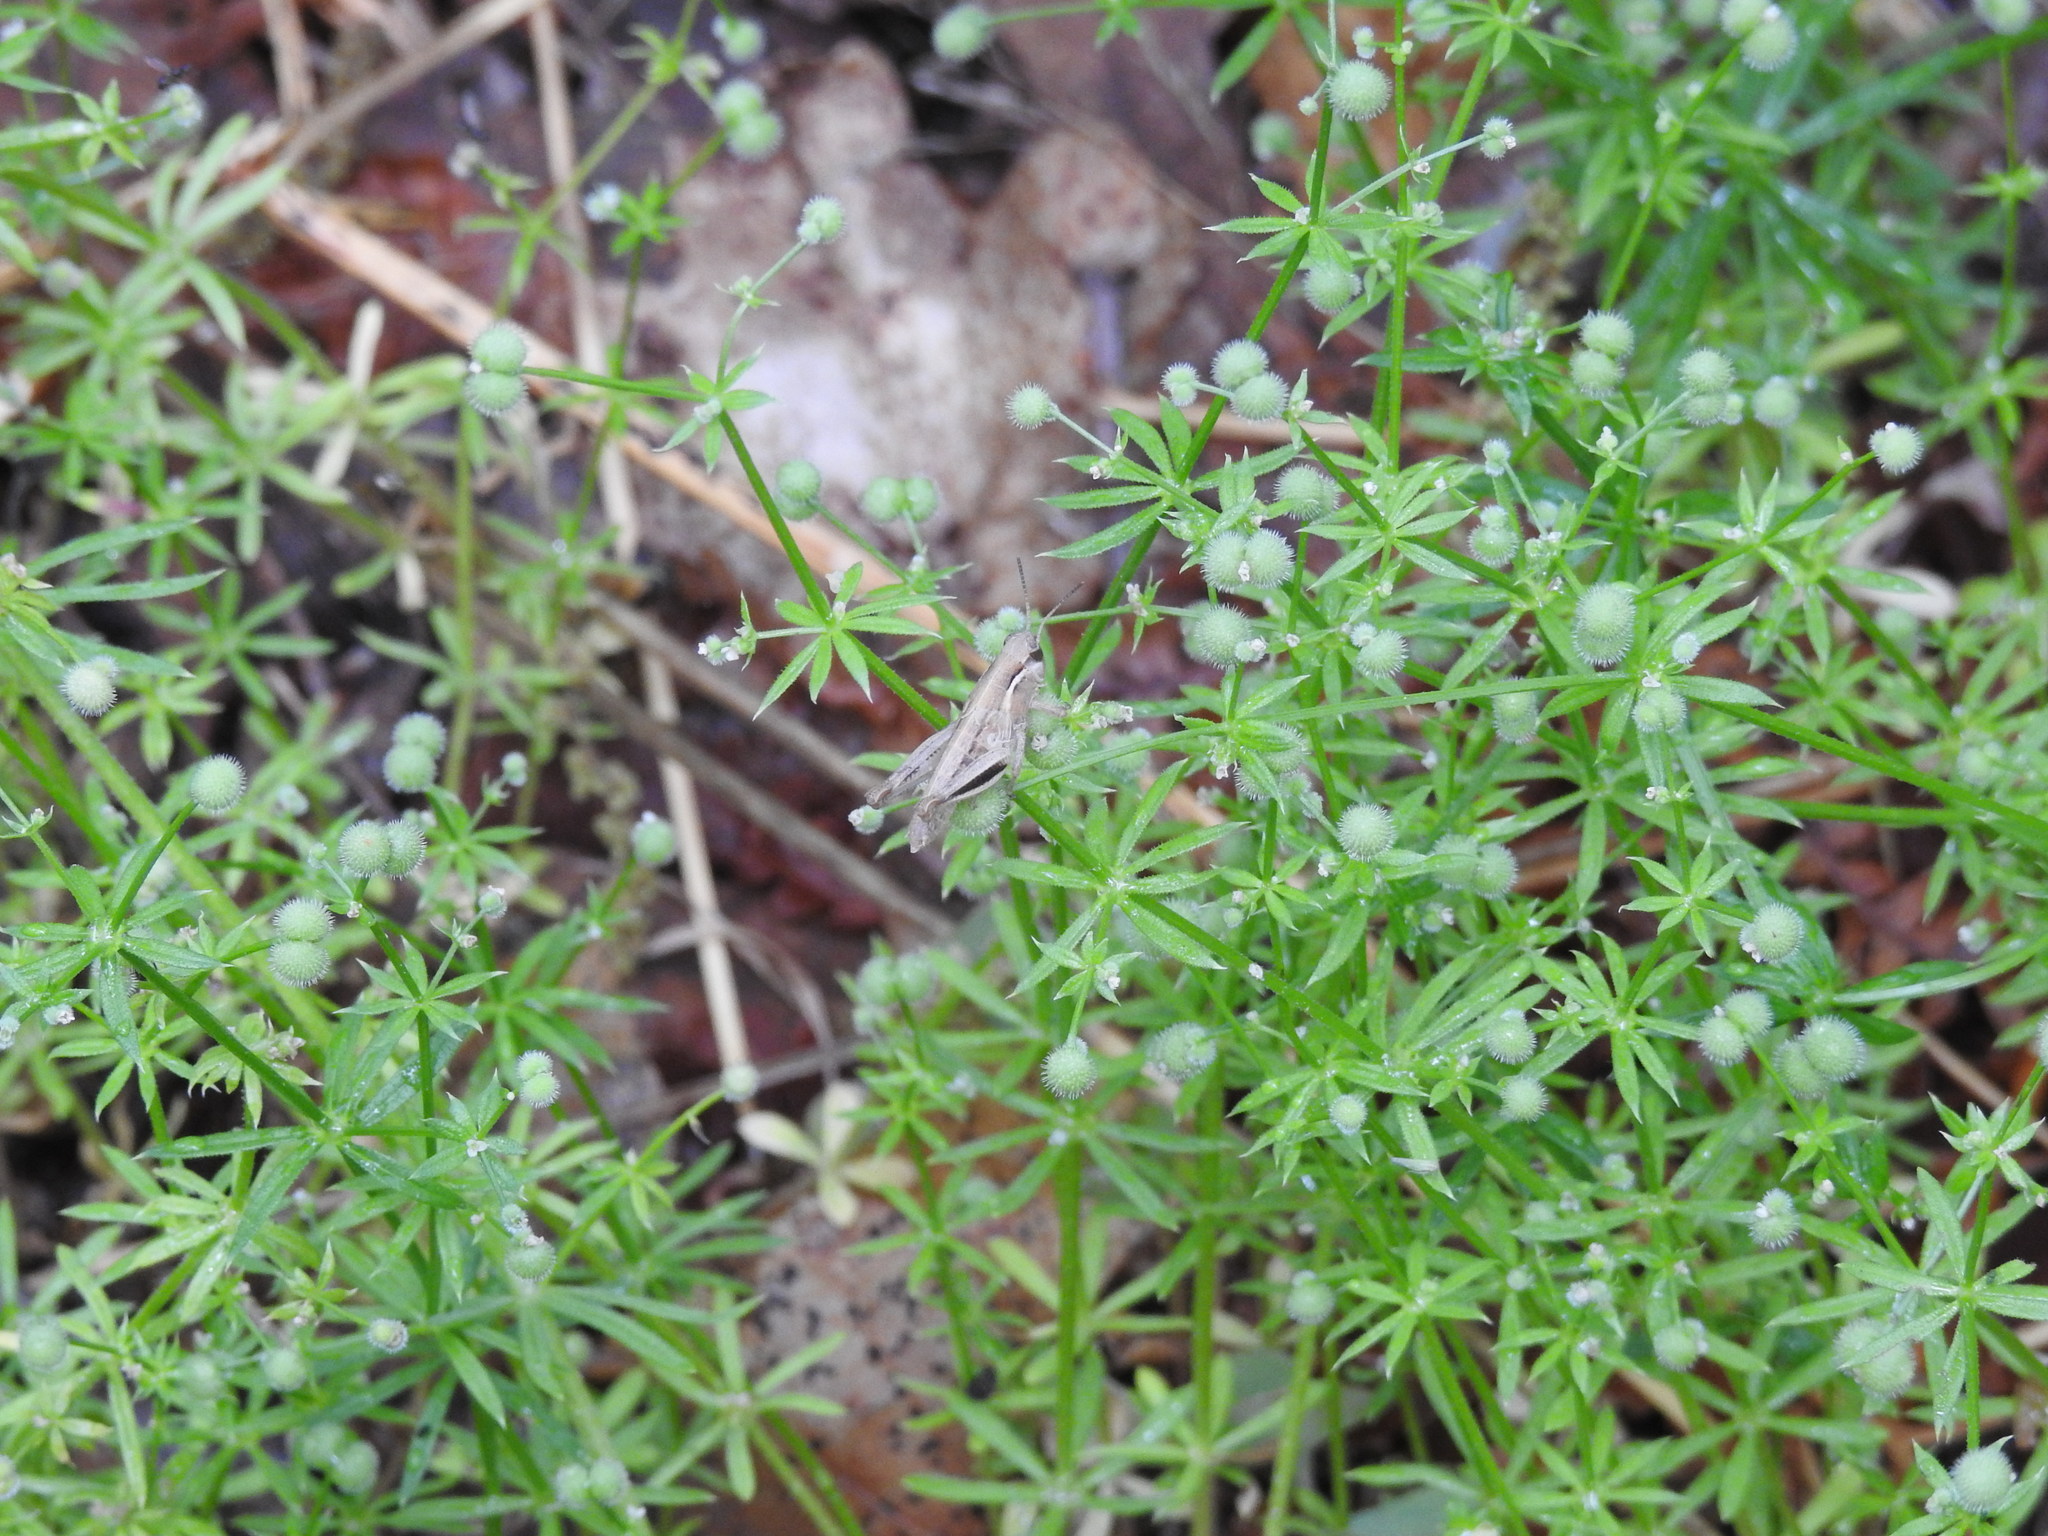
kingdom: Plantae
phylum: Tracheophyta
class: Magnoliopsida
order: Gentianales
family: Rubiaceae
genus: Galium
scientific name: Galium aparine
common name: Cleavers
